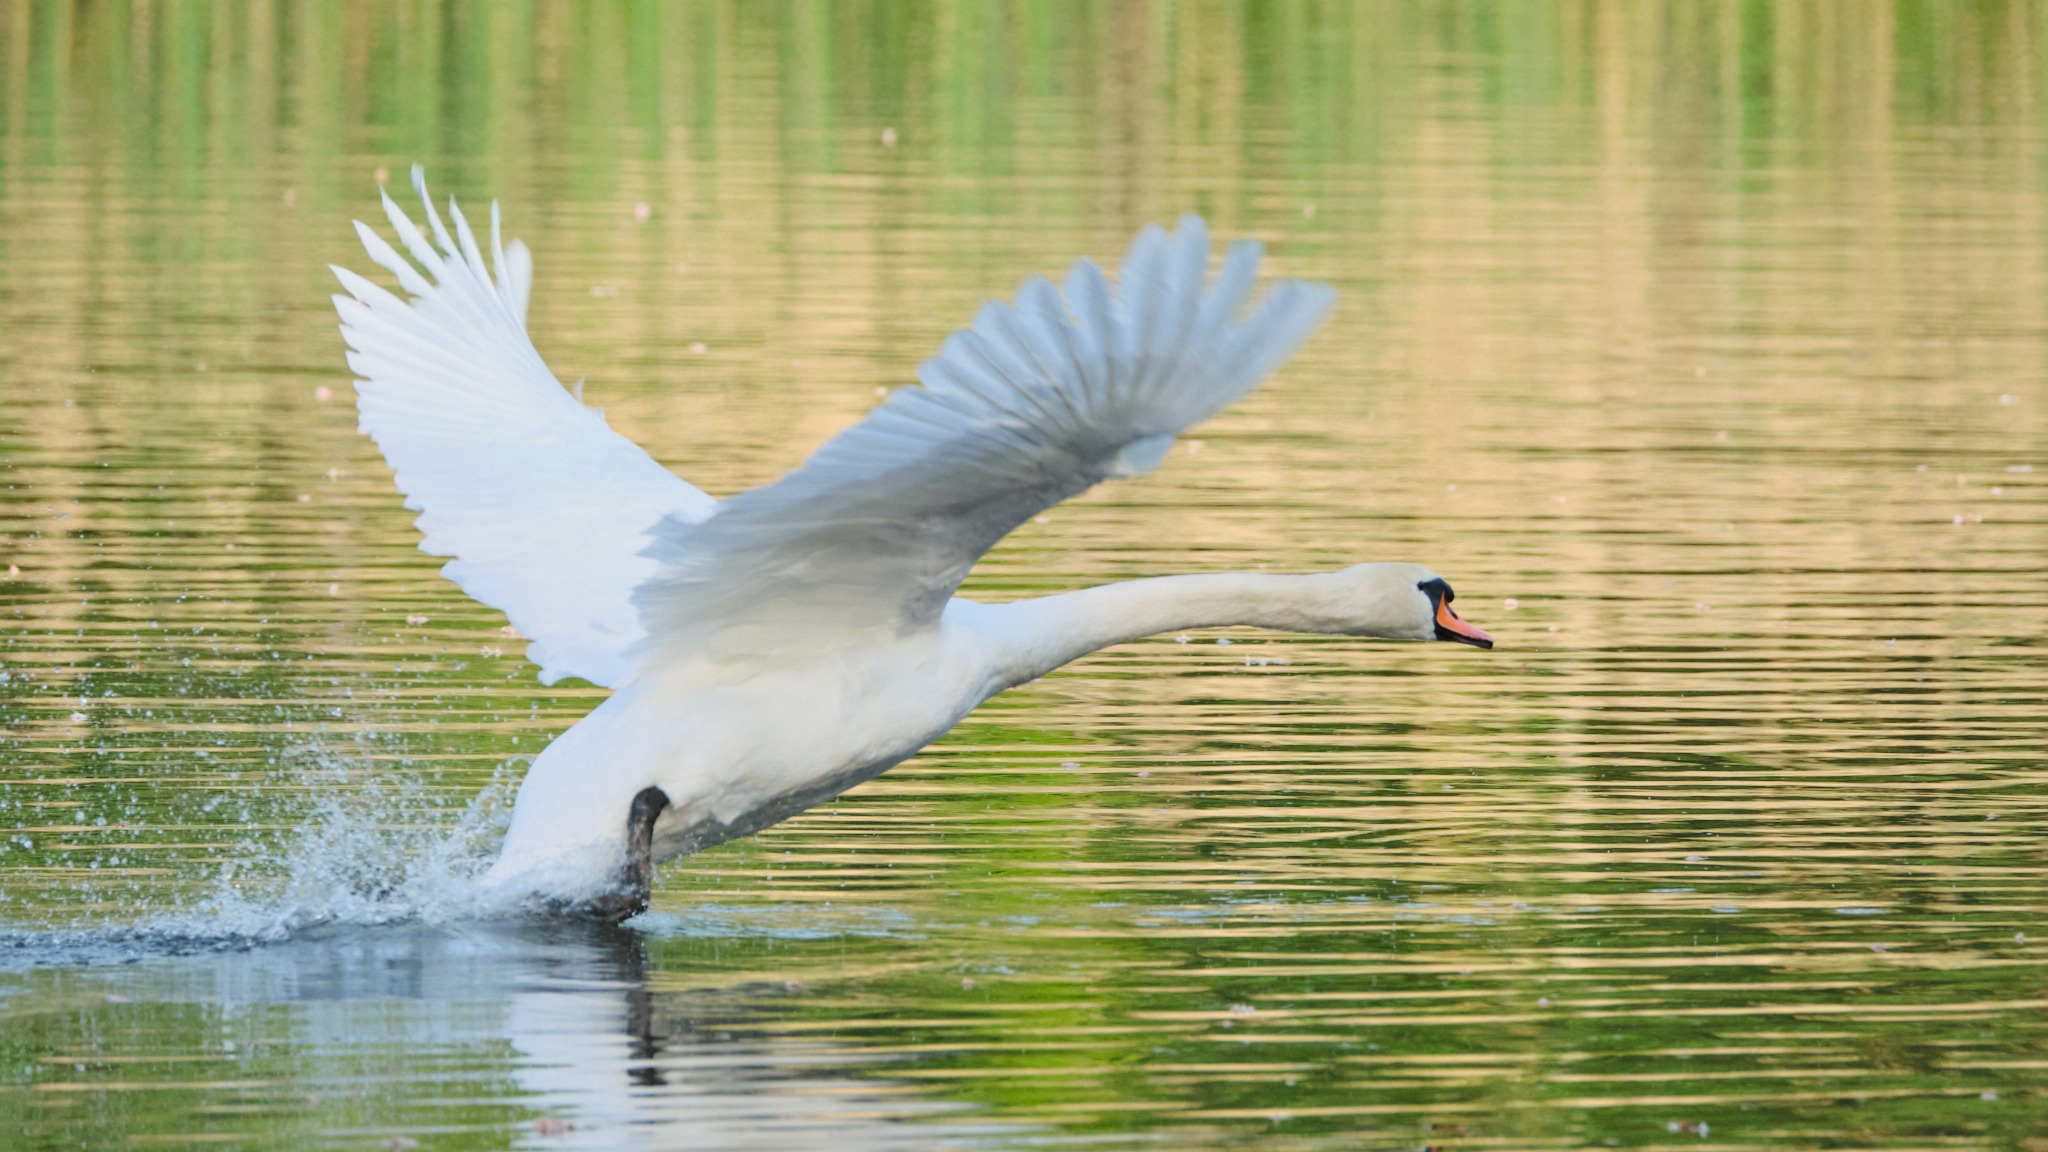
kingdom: Animalia
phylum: Chordata
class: Aves
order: Anseriformes
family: Anatidae
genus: Cygnus
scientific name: Cygnus olor
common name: Mute swan
